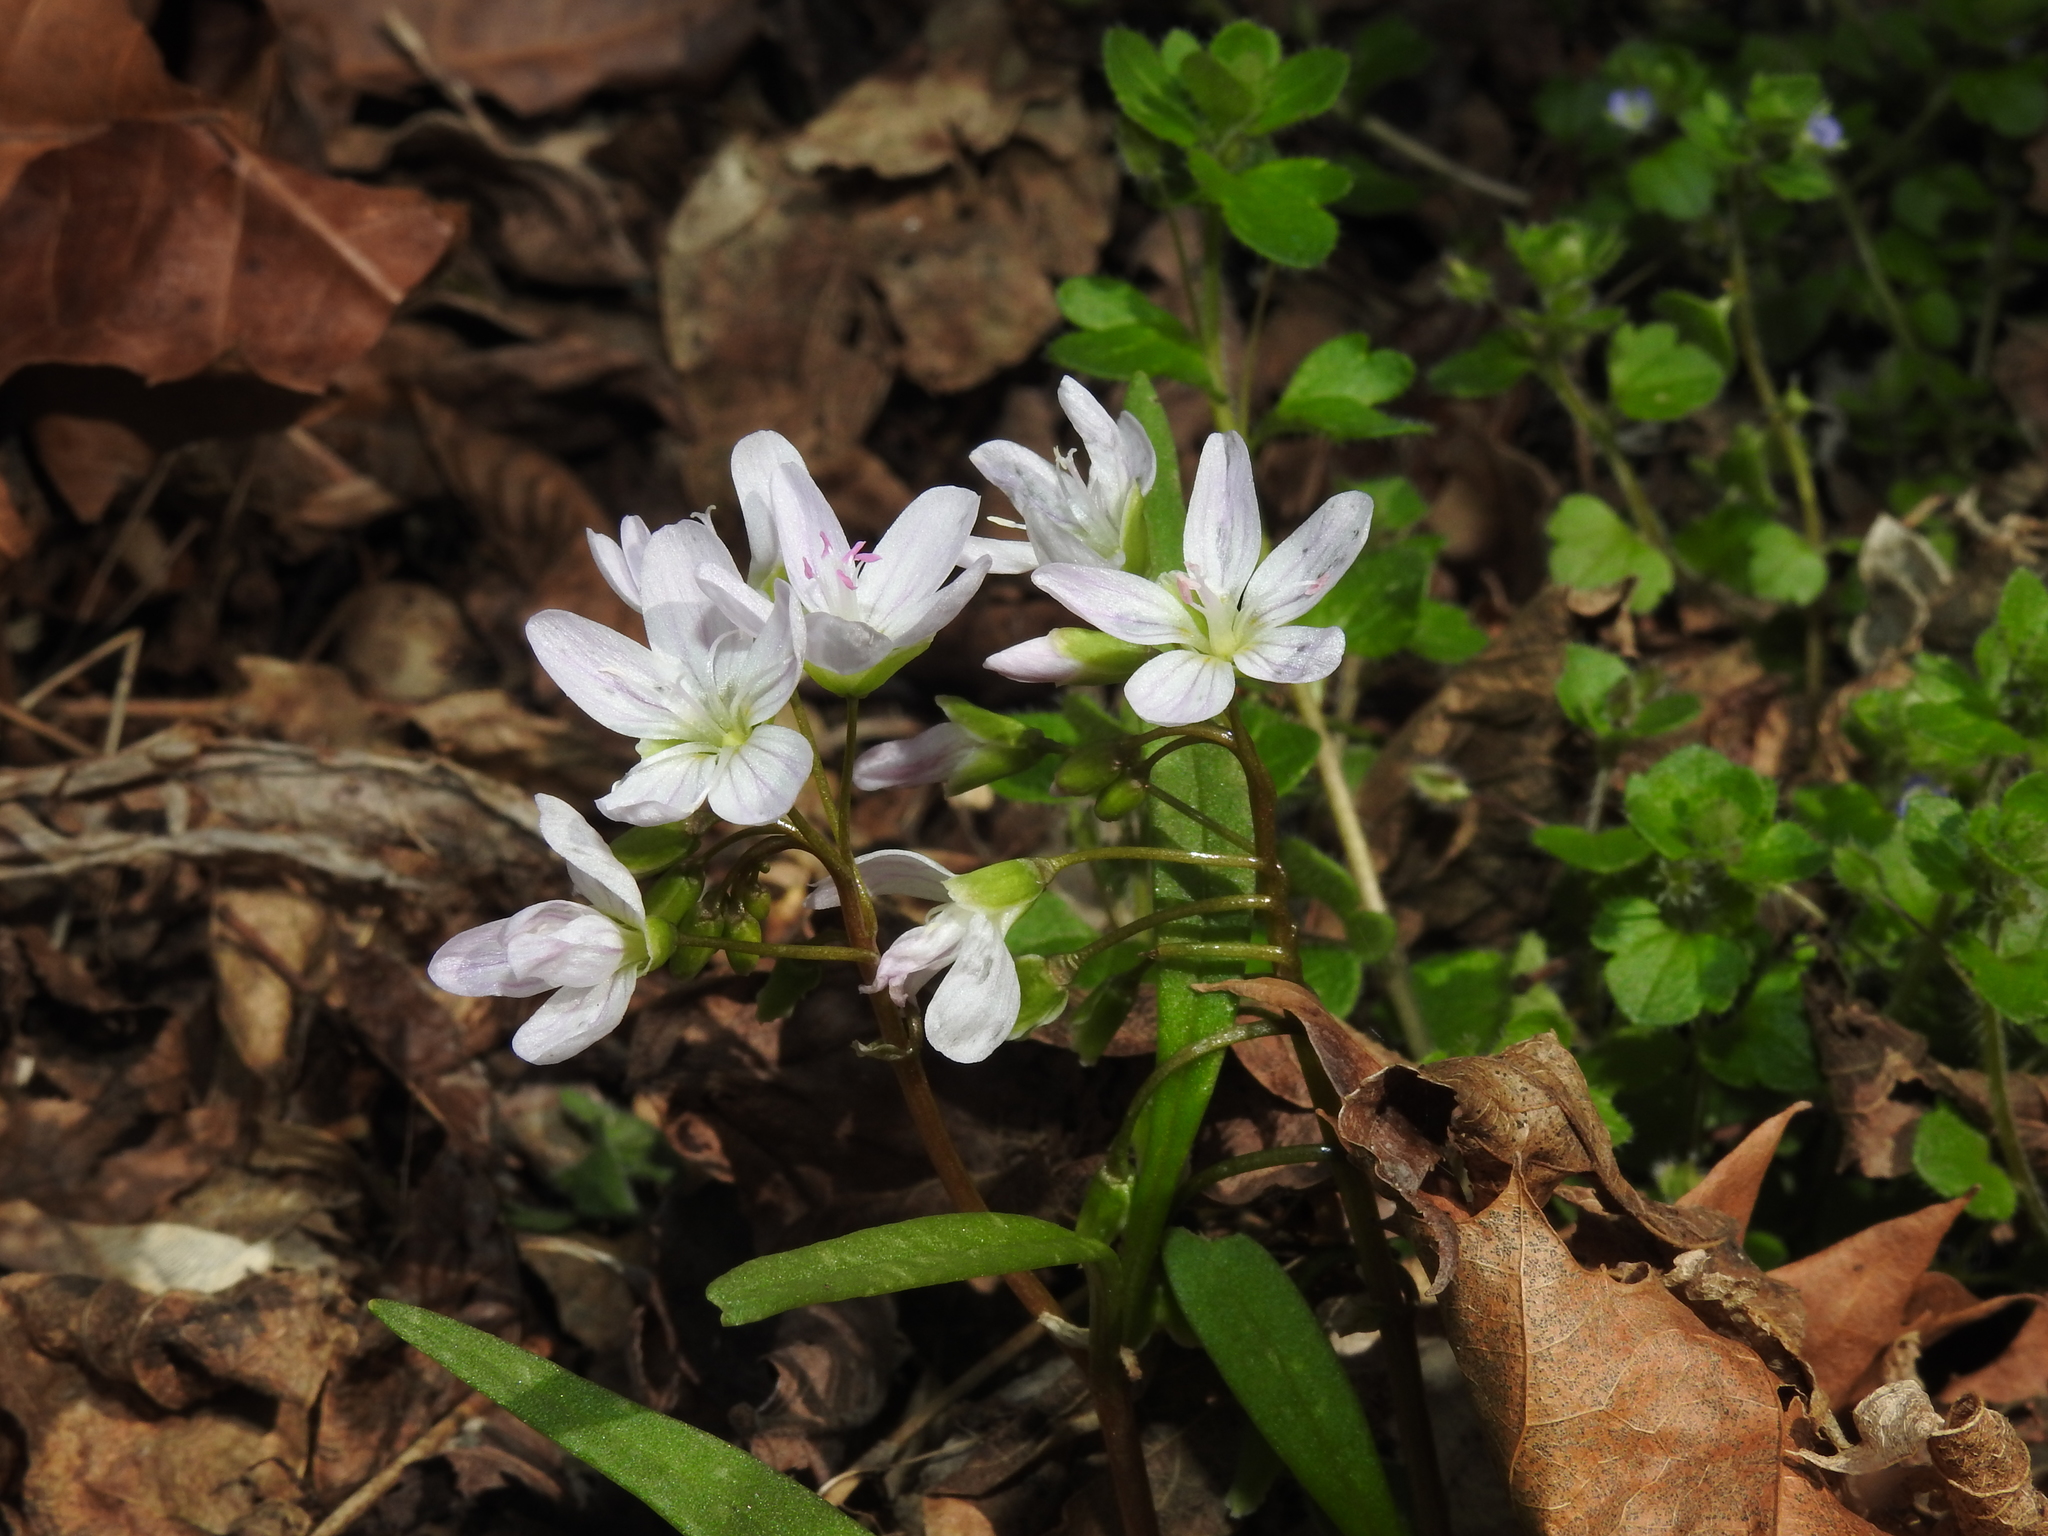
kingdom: Plantae
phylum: Tracheophyta
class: Magnoliopsida
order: Caryophyllales
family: Montiaceae
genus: Claytonia
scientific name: Claytonia virginica
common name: Virginia springbeauty
